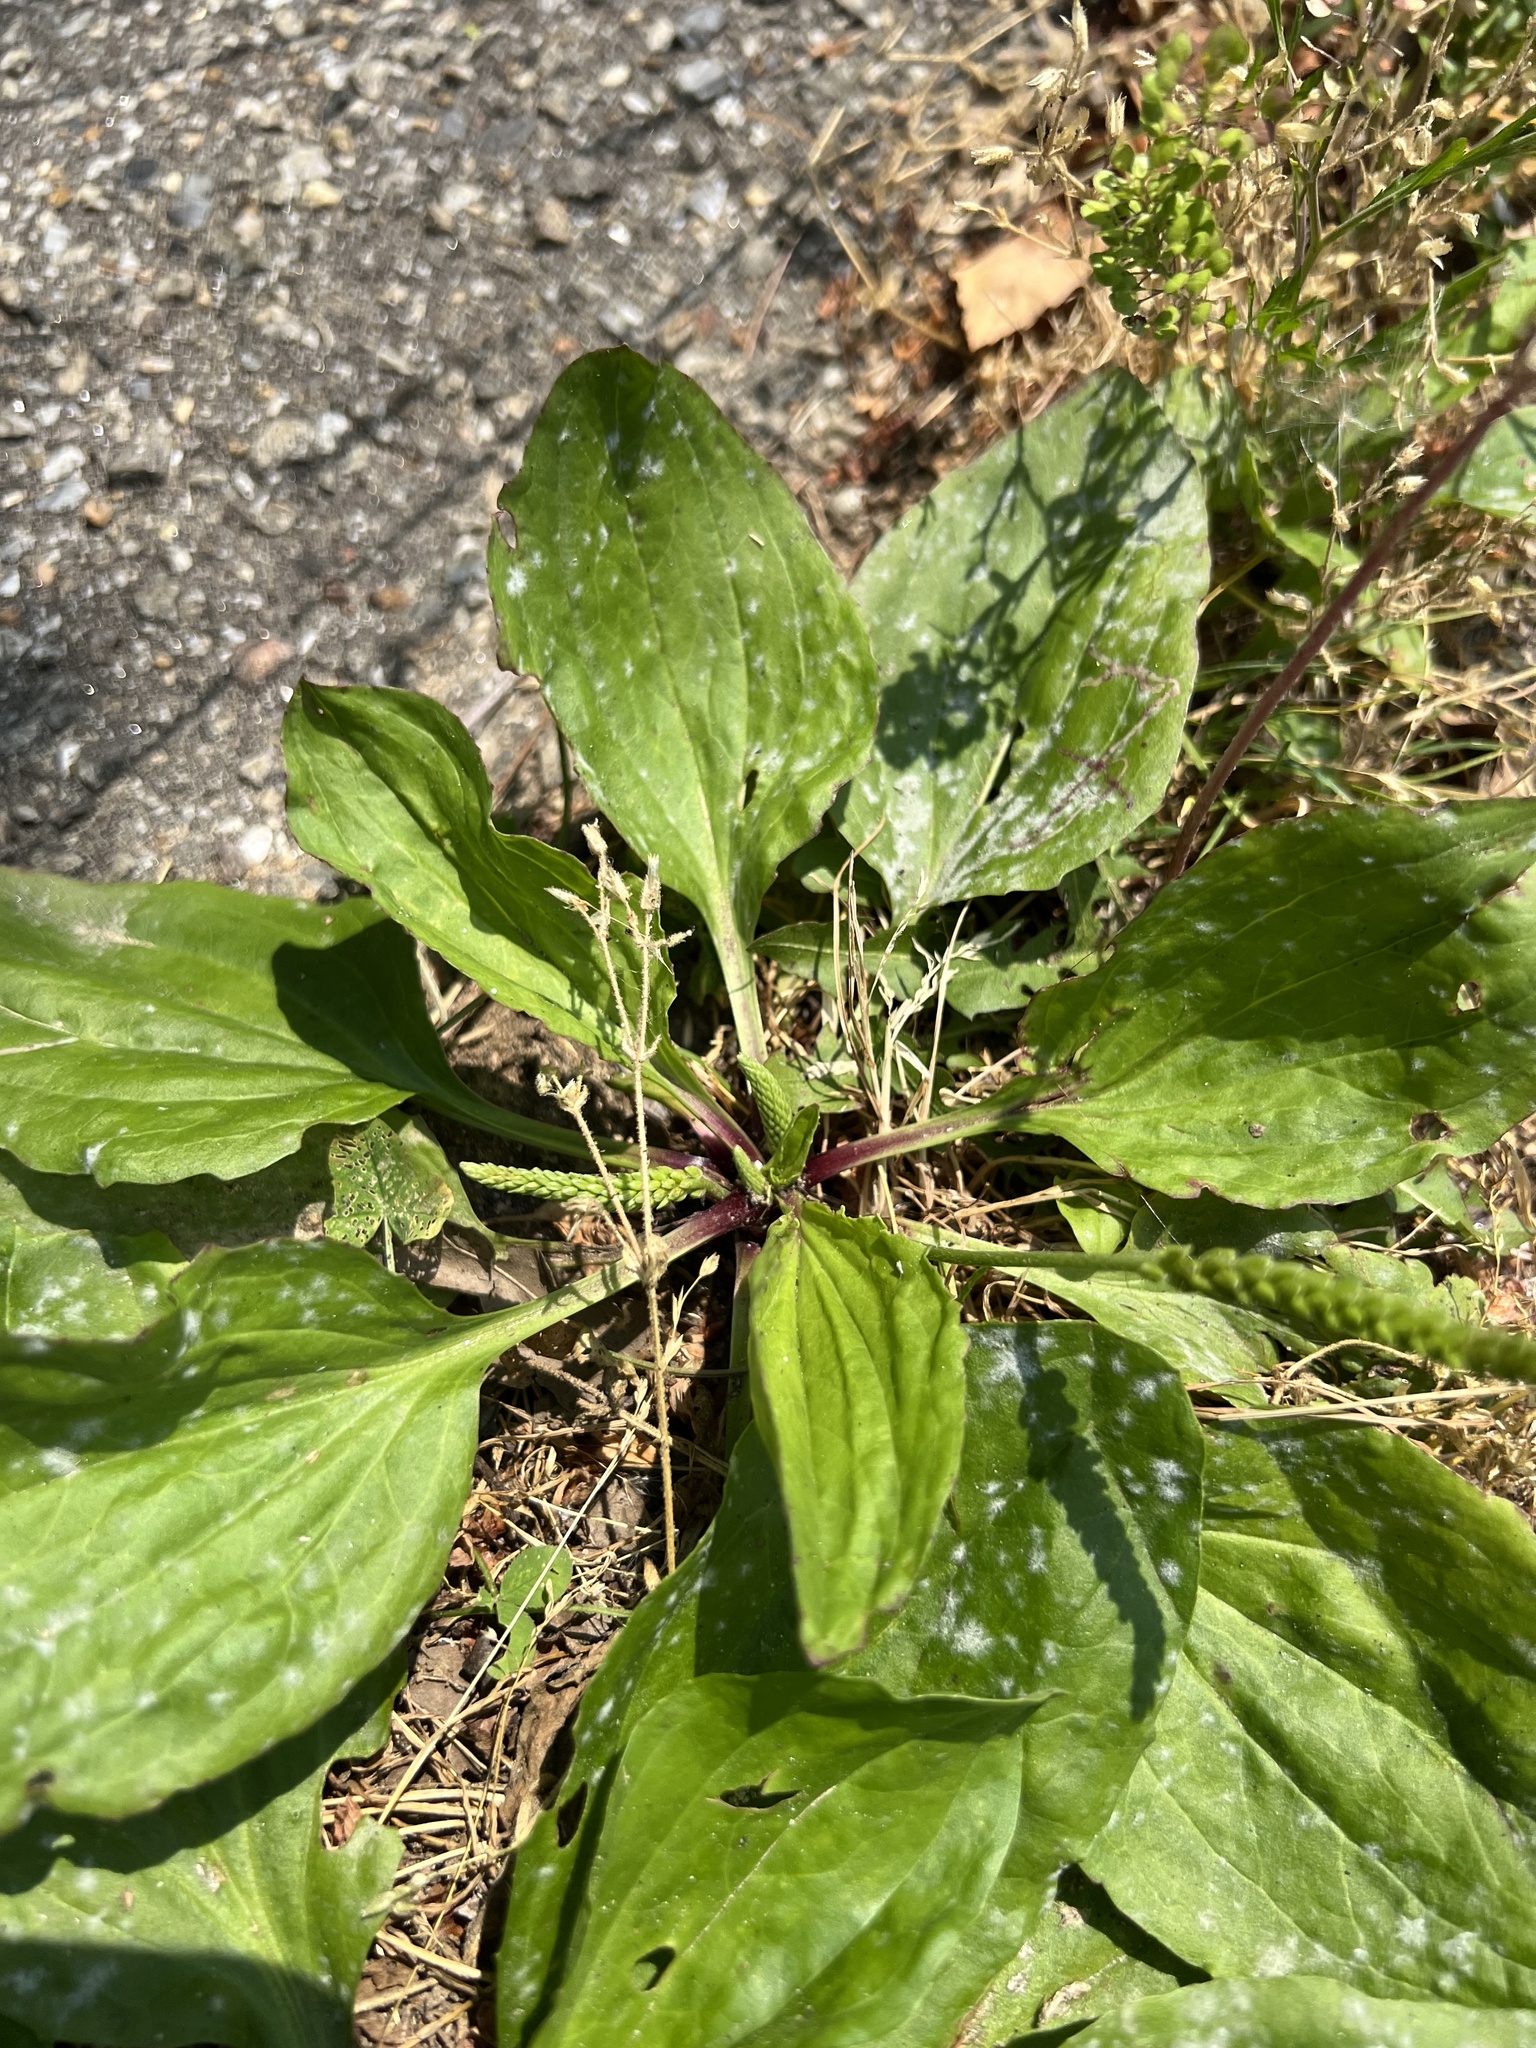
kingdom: Plantae
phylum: Tracheophyta
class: Magnoliopsida
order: Lamiales
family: Plantaginaceae
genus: Plantago
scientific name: Plantago rugelii
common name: American plantain
